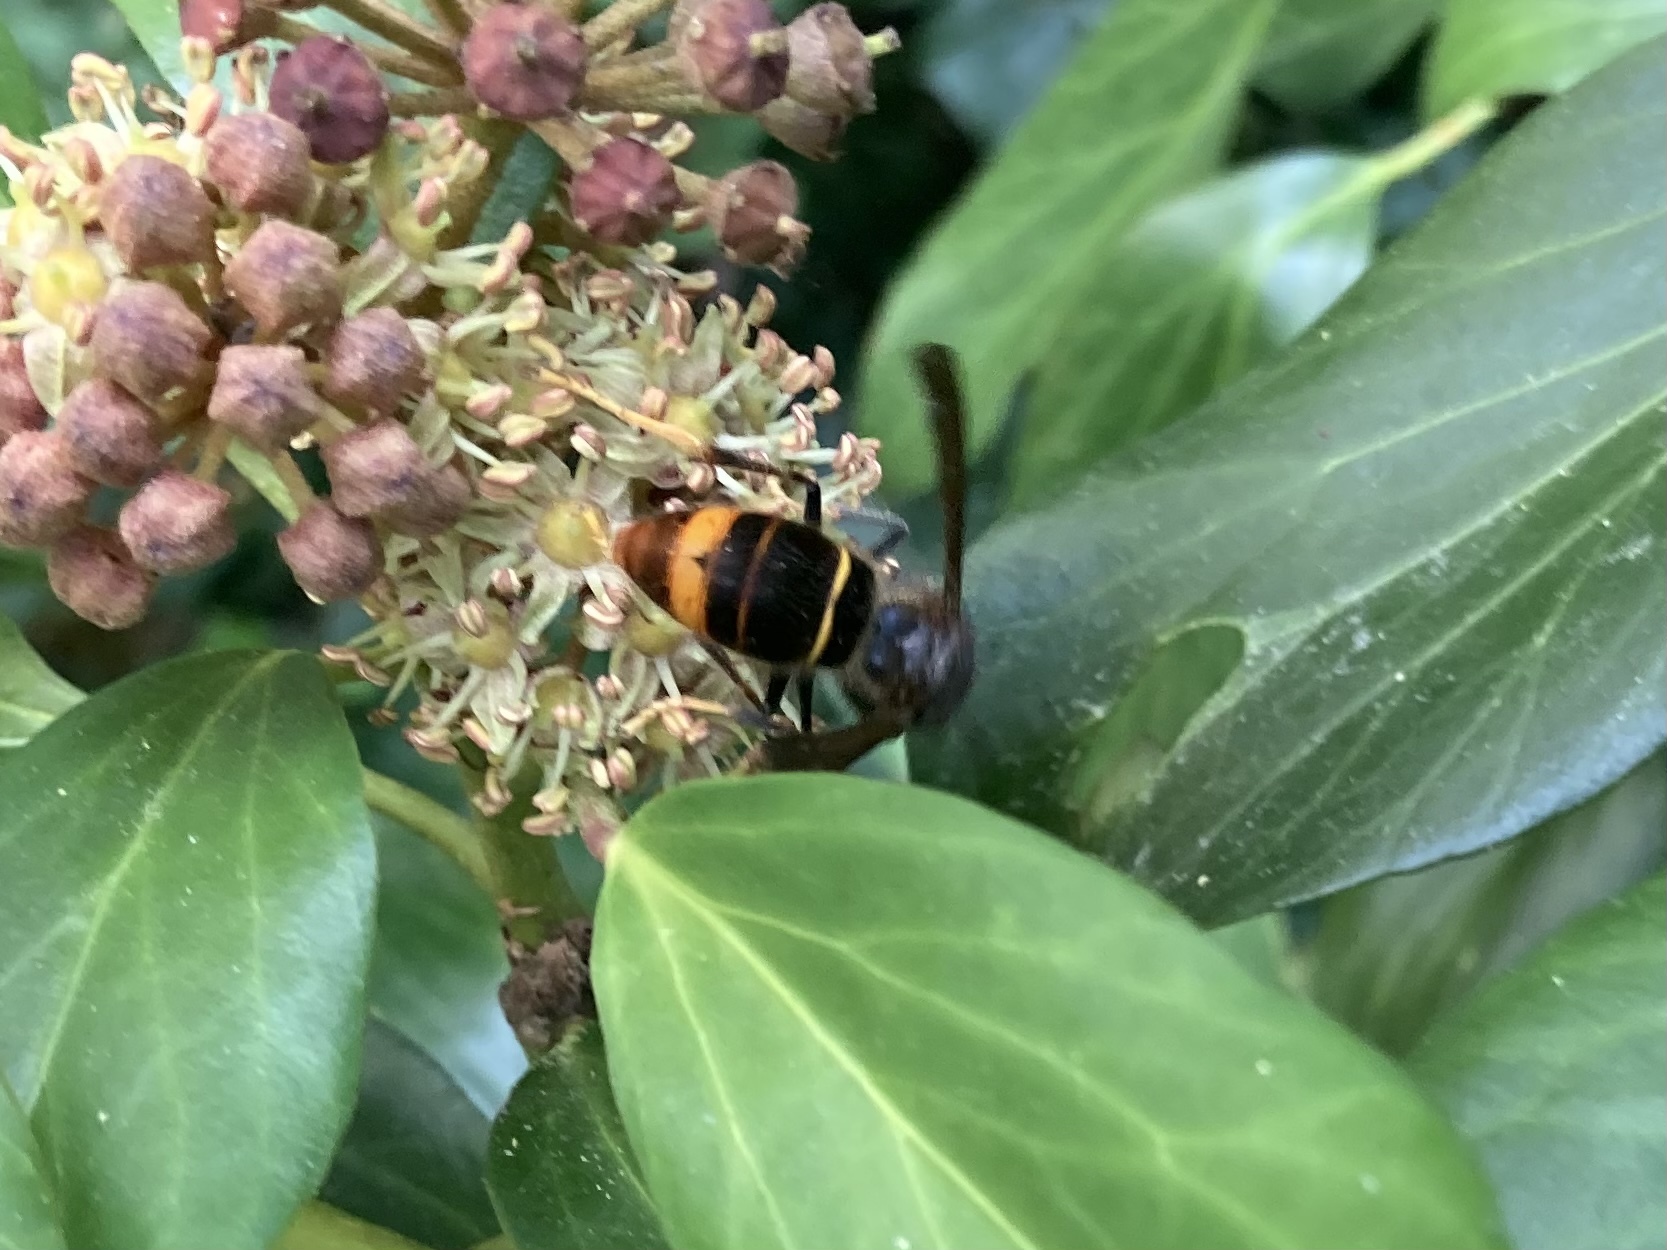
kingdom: Animalia
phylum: Arthropoda
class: Insecta
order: Hymenoptera
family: Vespidae
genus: Vespa
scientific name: Vespa velutina
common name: Asian hornet
